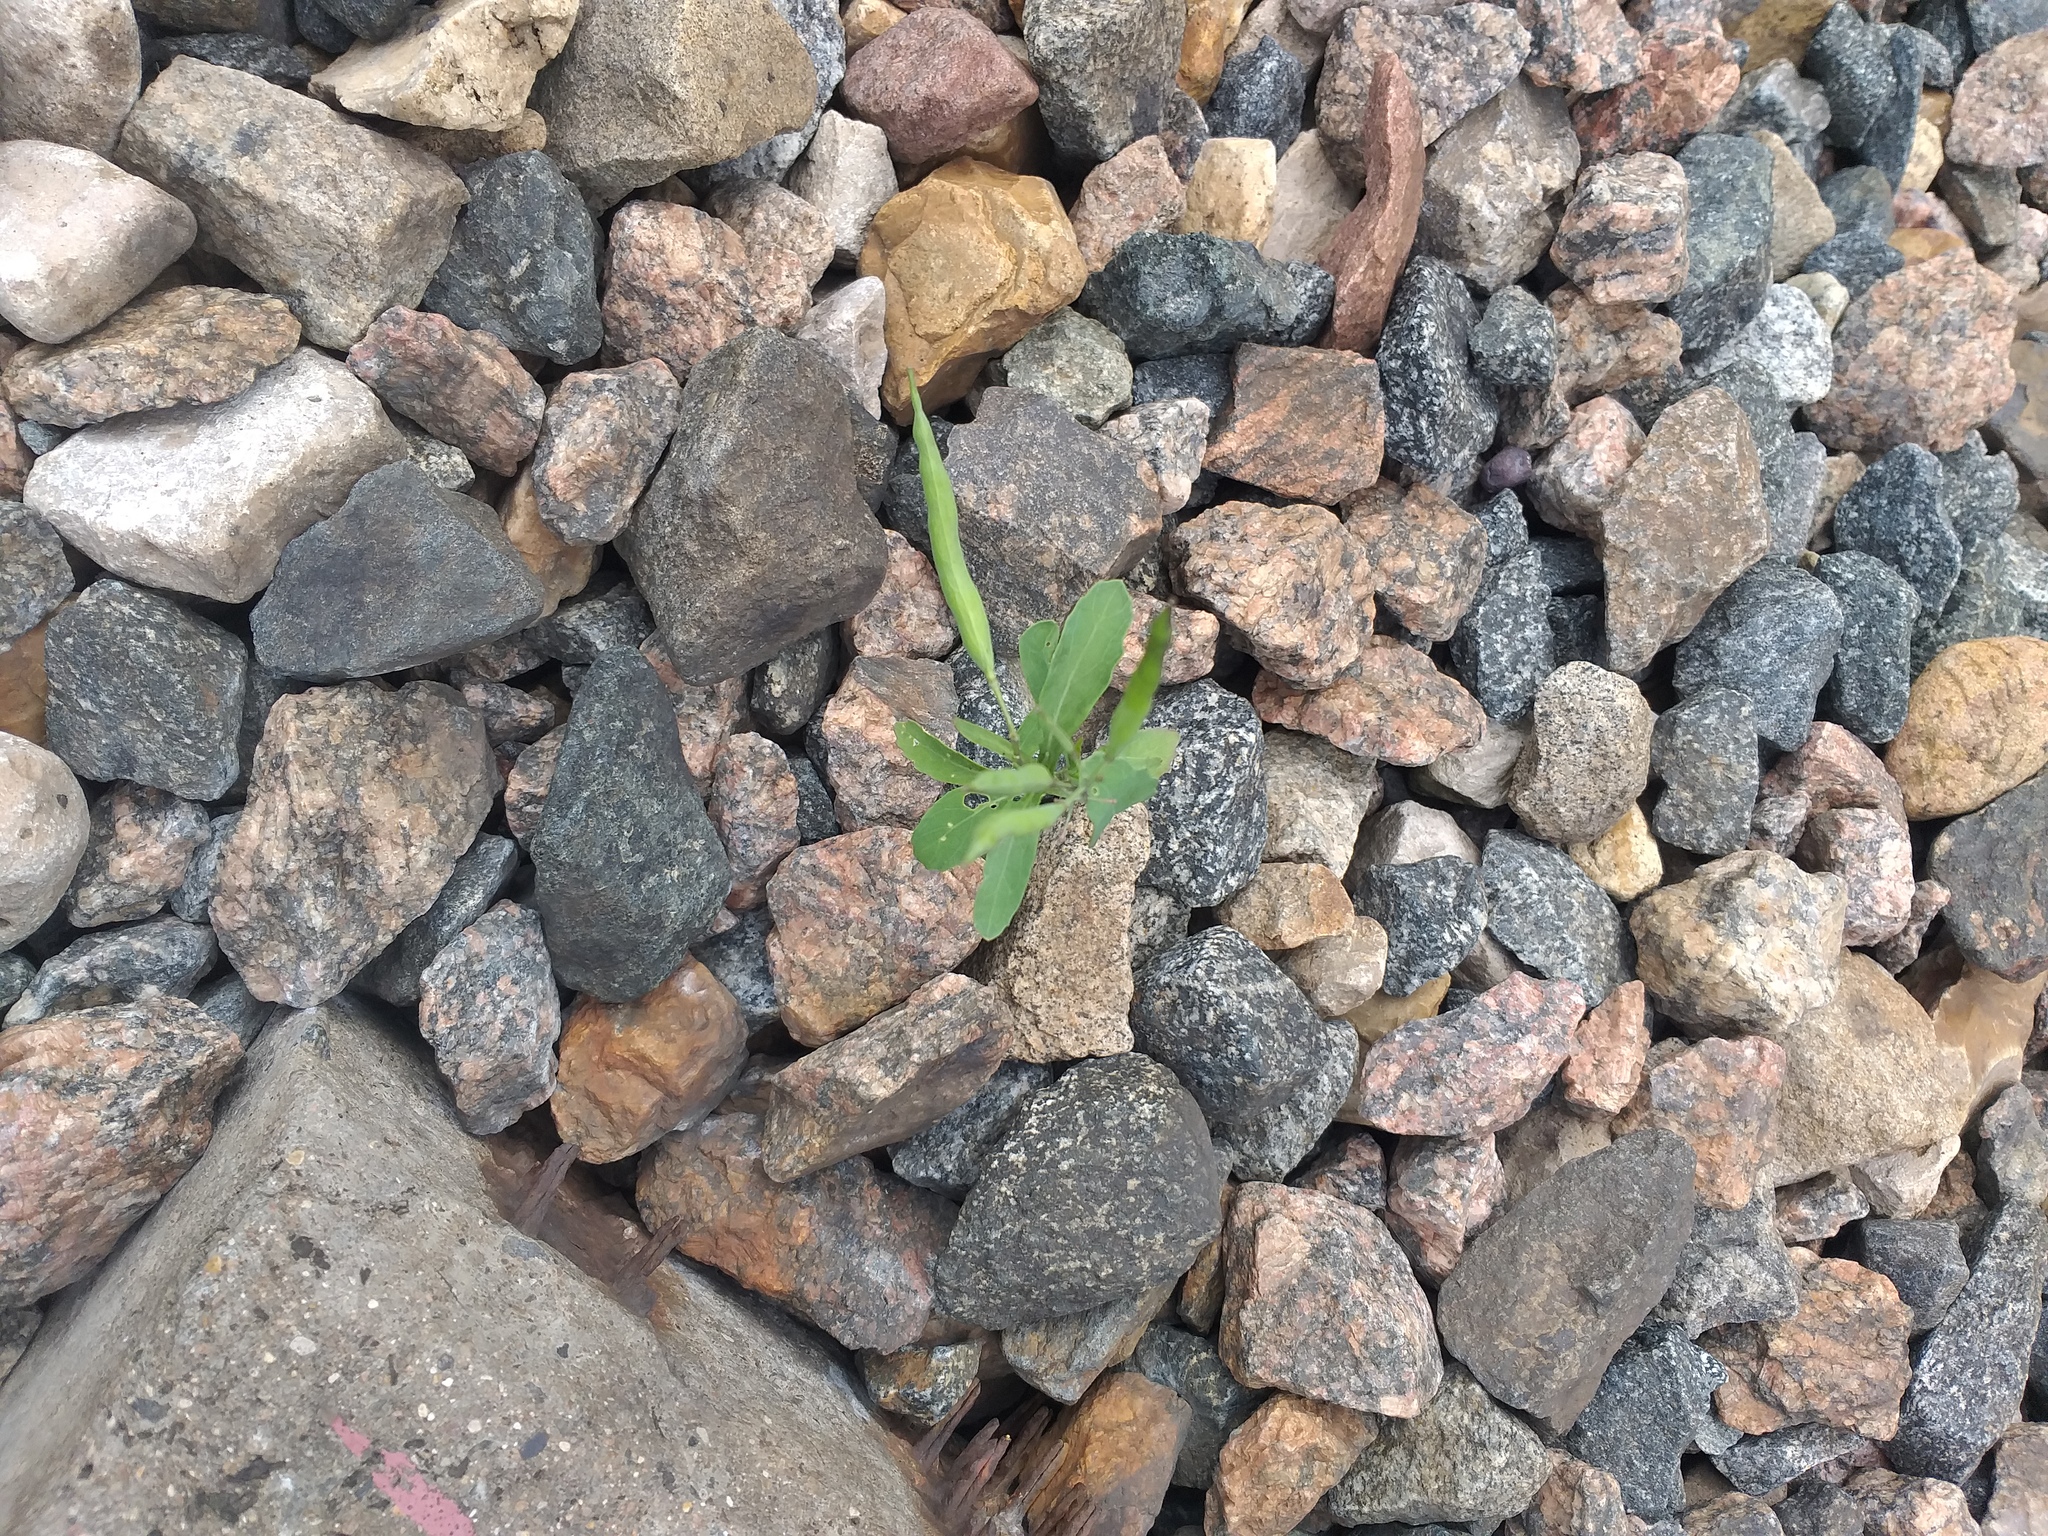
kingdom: Plantae
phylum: Tracheophyta
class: Magnoliopsida
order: Brassicales
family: Brassicaceae
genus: Brassica
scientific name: Brassica napus
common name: Rape
